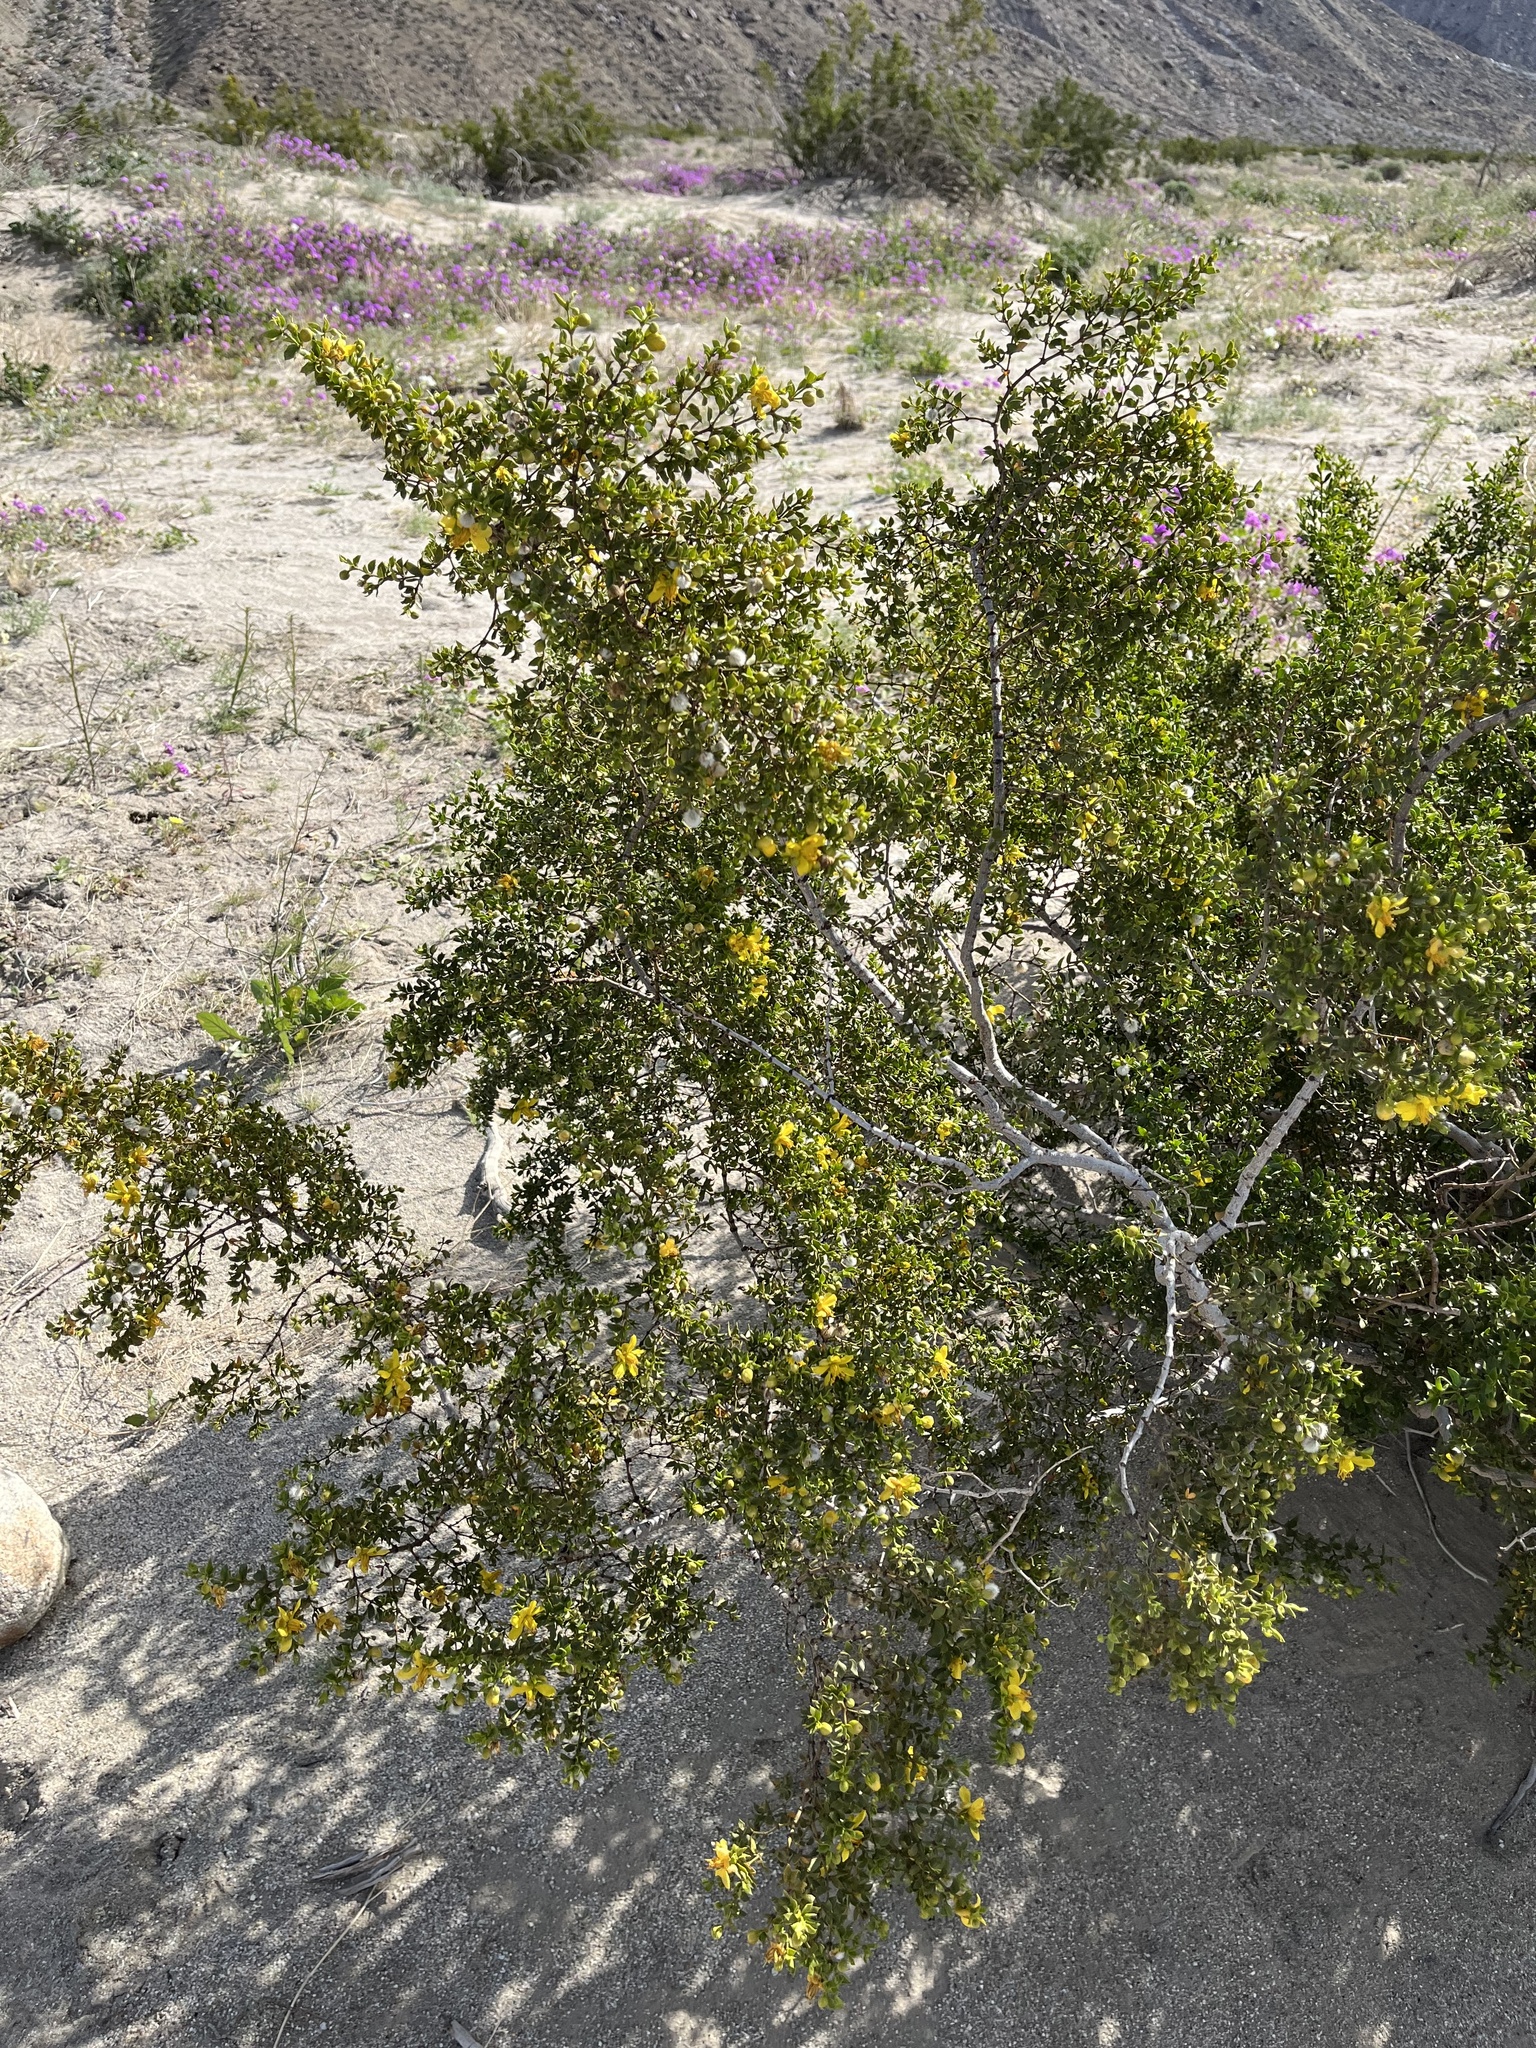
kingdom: Plantae
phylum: Tracheophyta
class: Magnoliopsida
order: Zygophyllales
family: Zygophyllaceae
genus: Larrea
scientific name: Larrea tridentata
